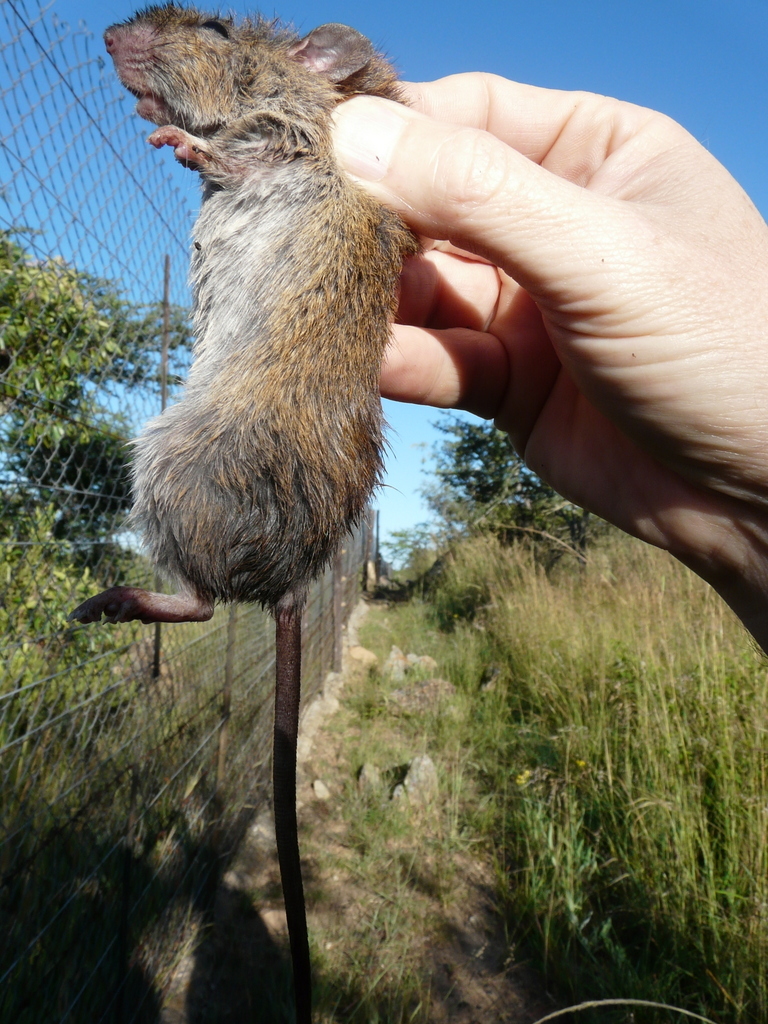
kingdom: Animalia
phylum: Chordata
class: Mammalia
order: Rodentia
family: Muridae
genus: Aethomys
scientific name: Aethomys chrysophilus
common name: Red veld aethomys
